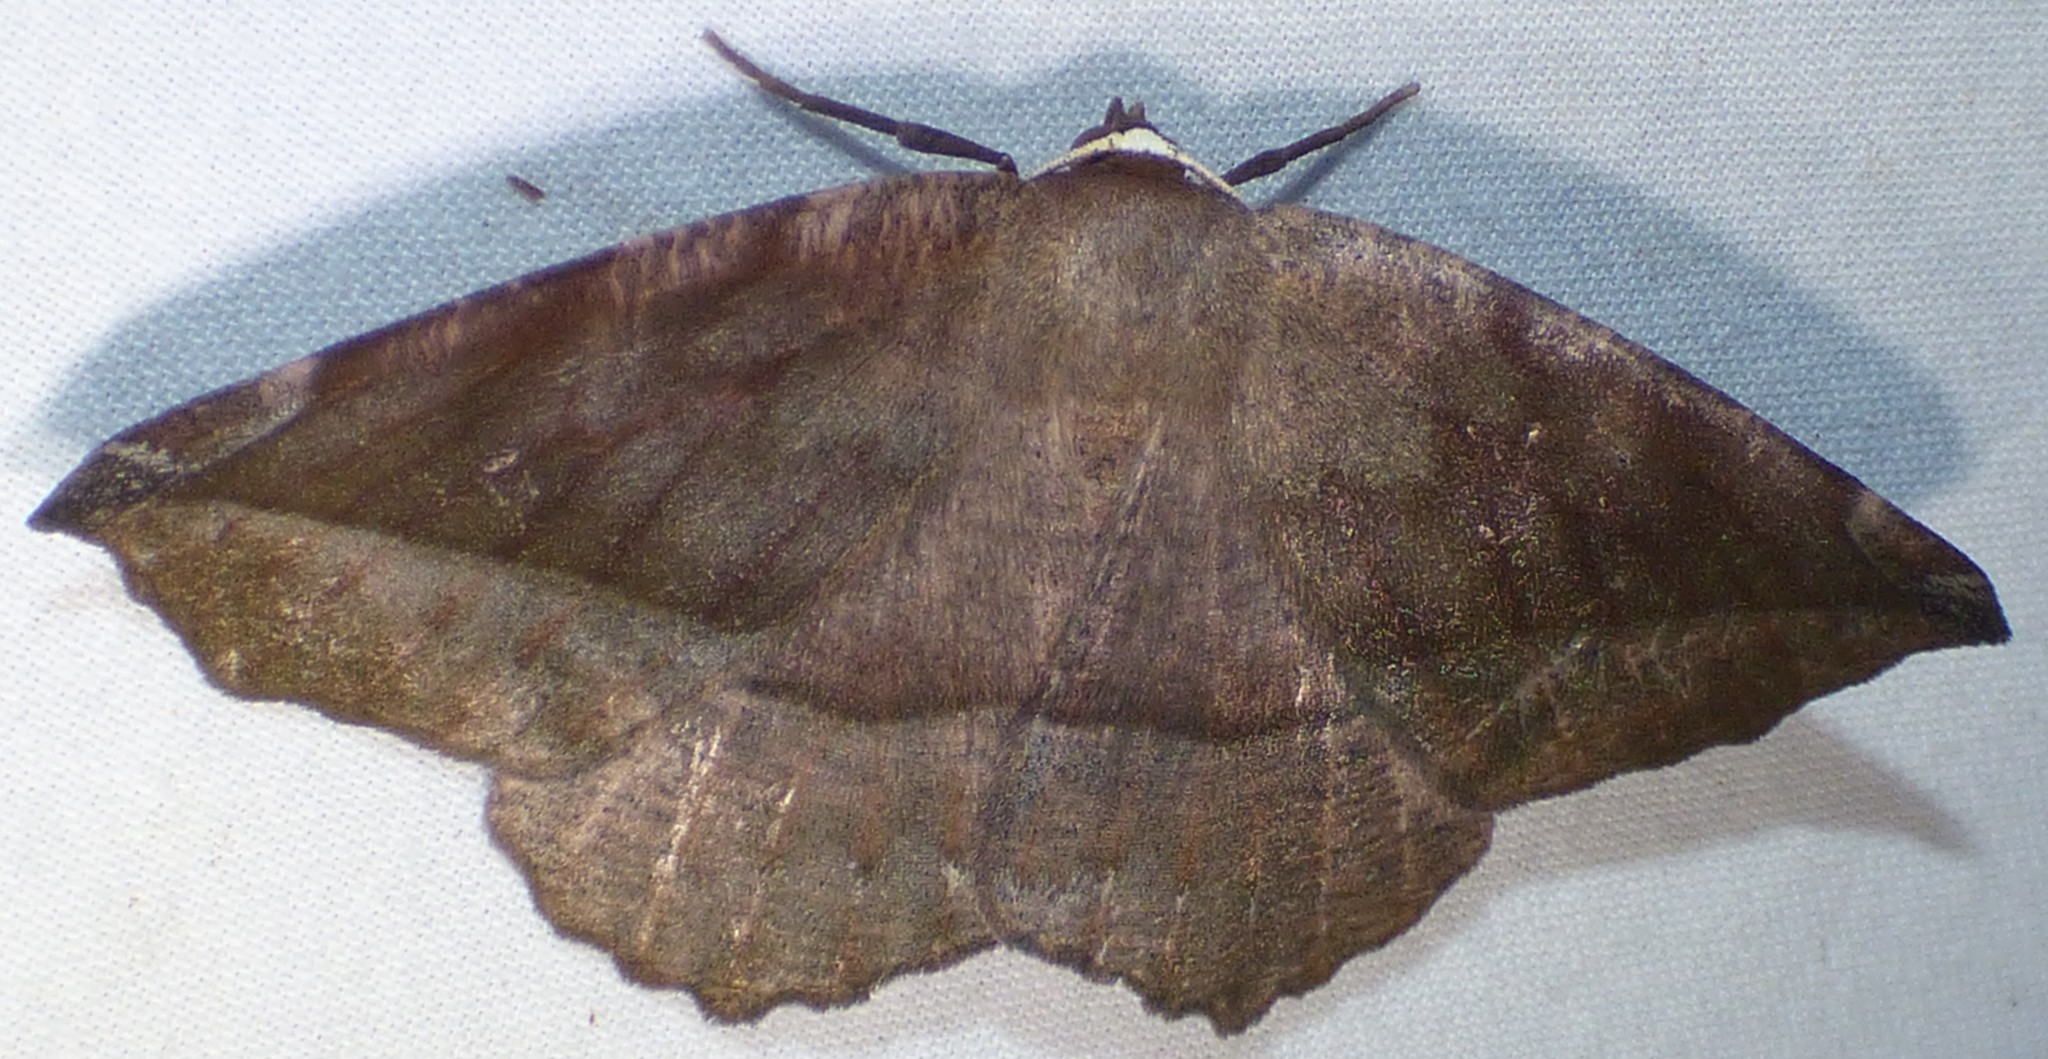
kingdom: Animalia
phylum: Arthropoda
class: Insecta
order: Lepidoptera
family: Geometridae
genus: Eutrapela
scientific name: Eutrapela clemataria
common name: Curved-toothed geometer
